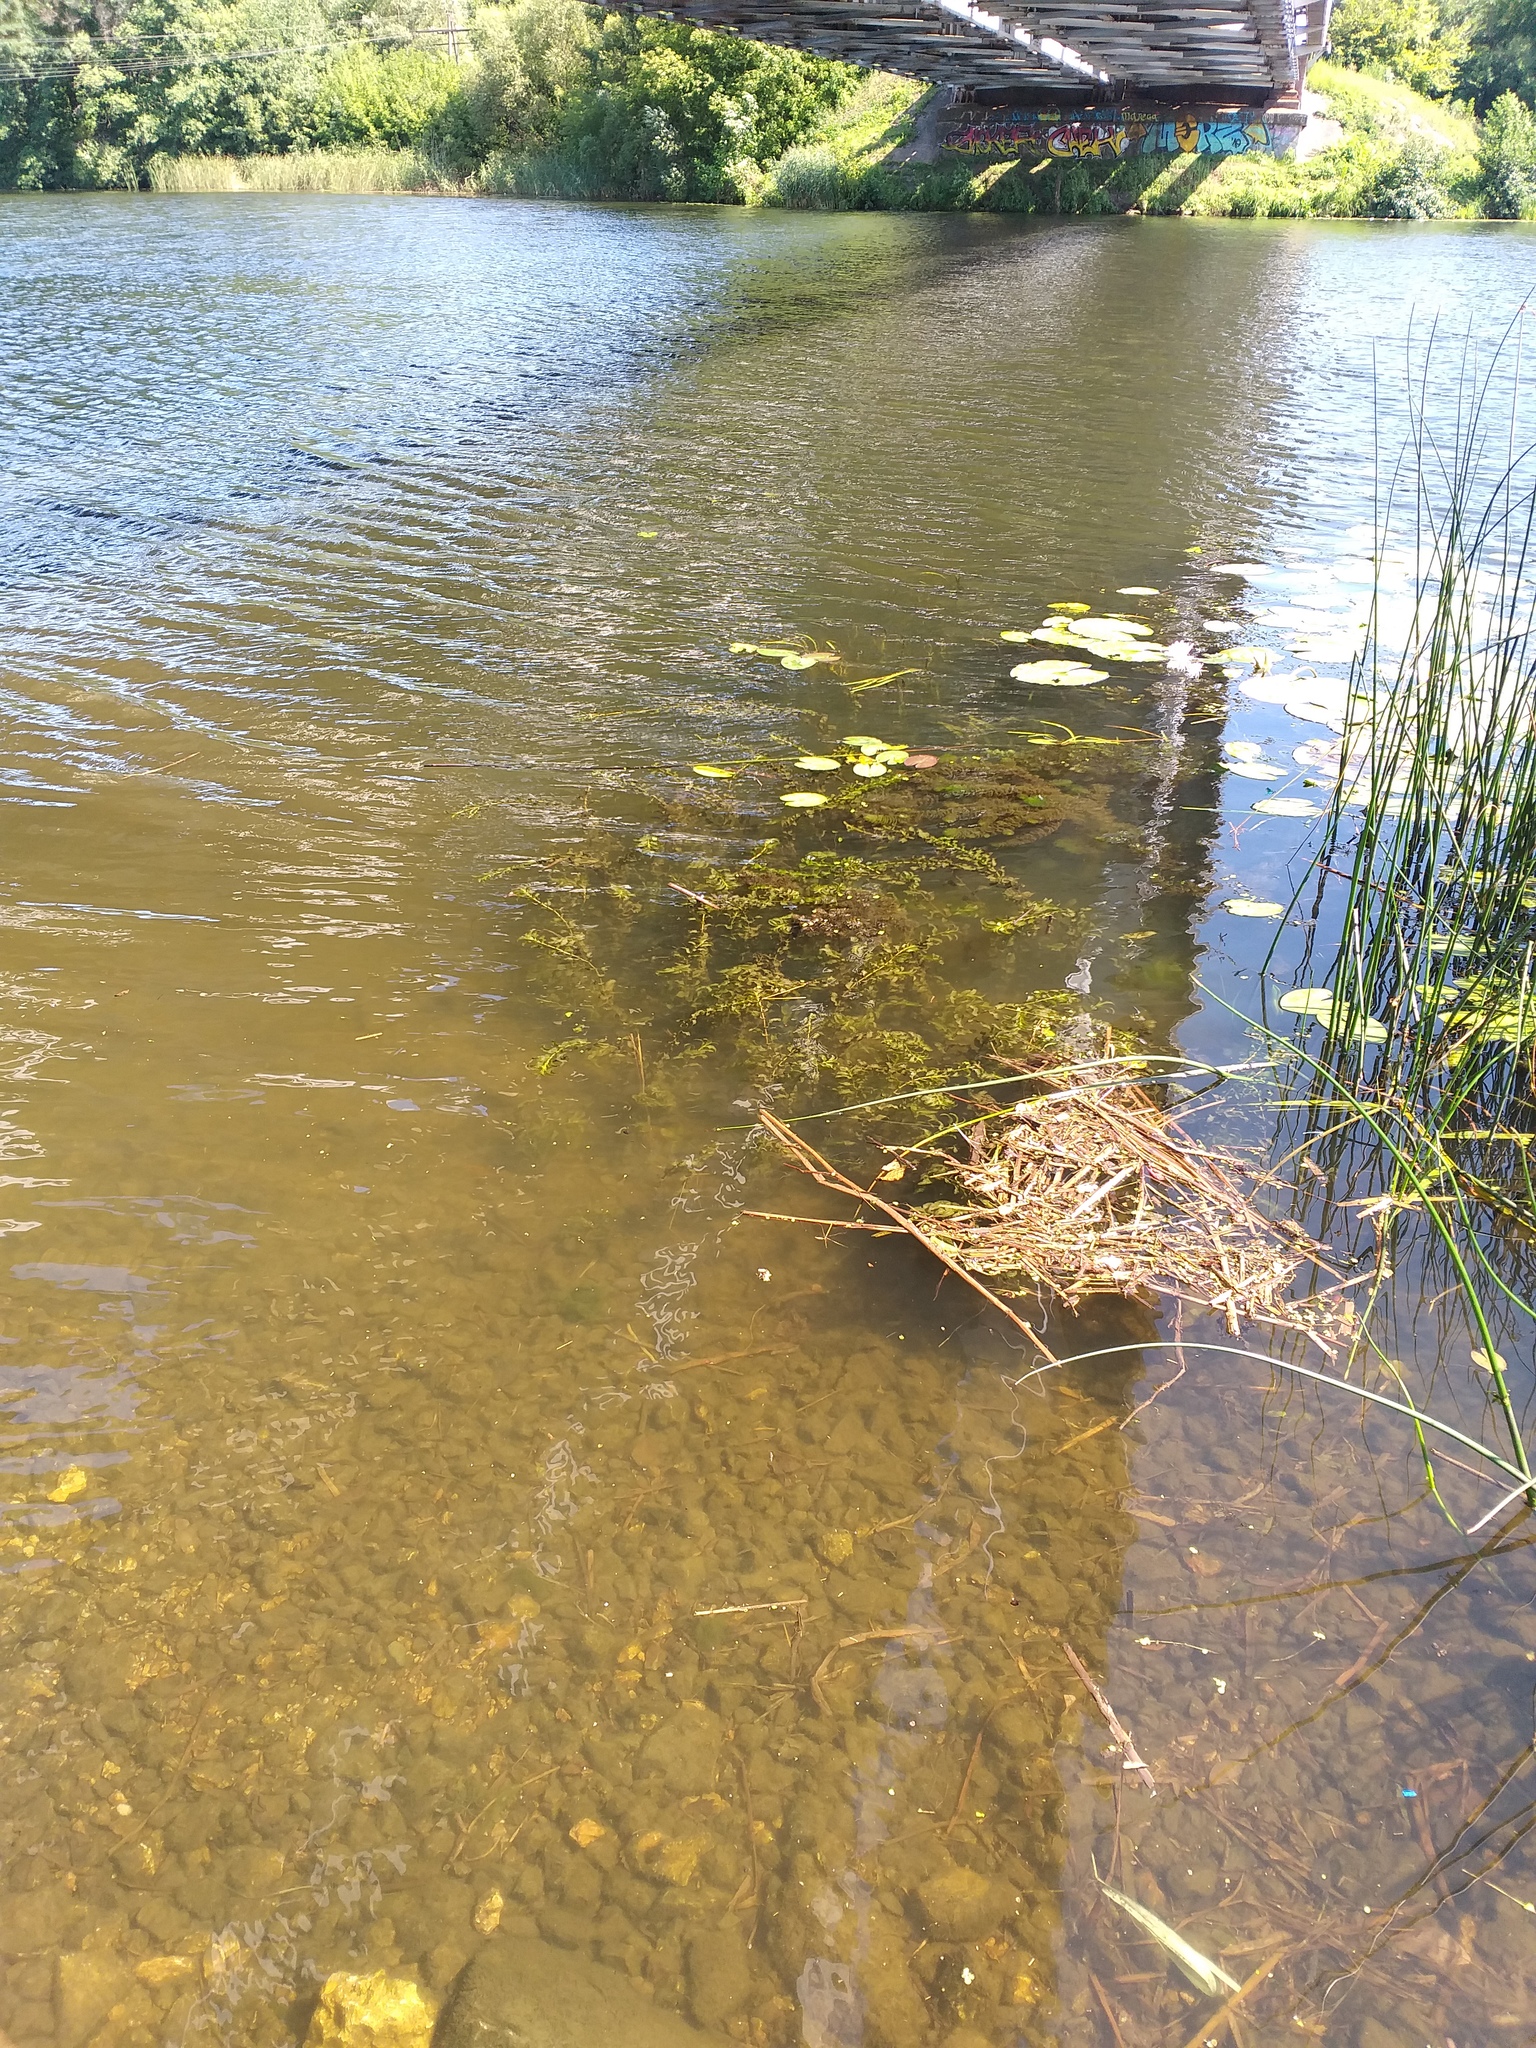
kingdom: Plantae
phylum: Tracheophyta
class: Liliopsida
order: Alismatales
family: Potamogetonaceae
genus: Potamogeton
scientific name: Potamogeton perfoliatus
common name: Perfoliate pondweed
